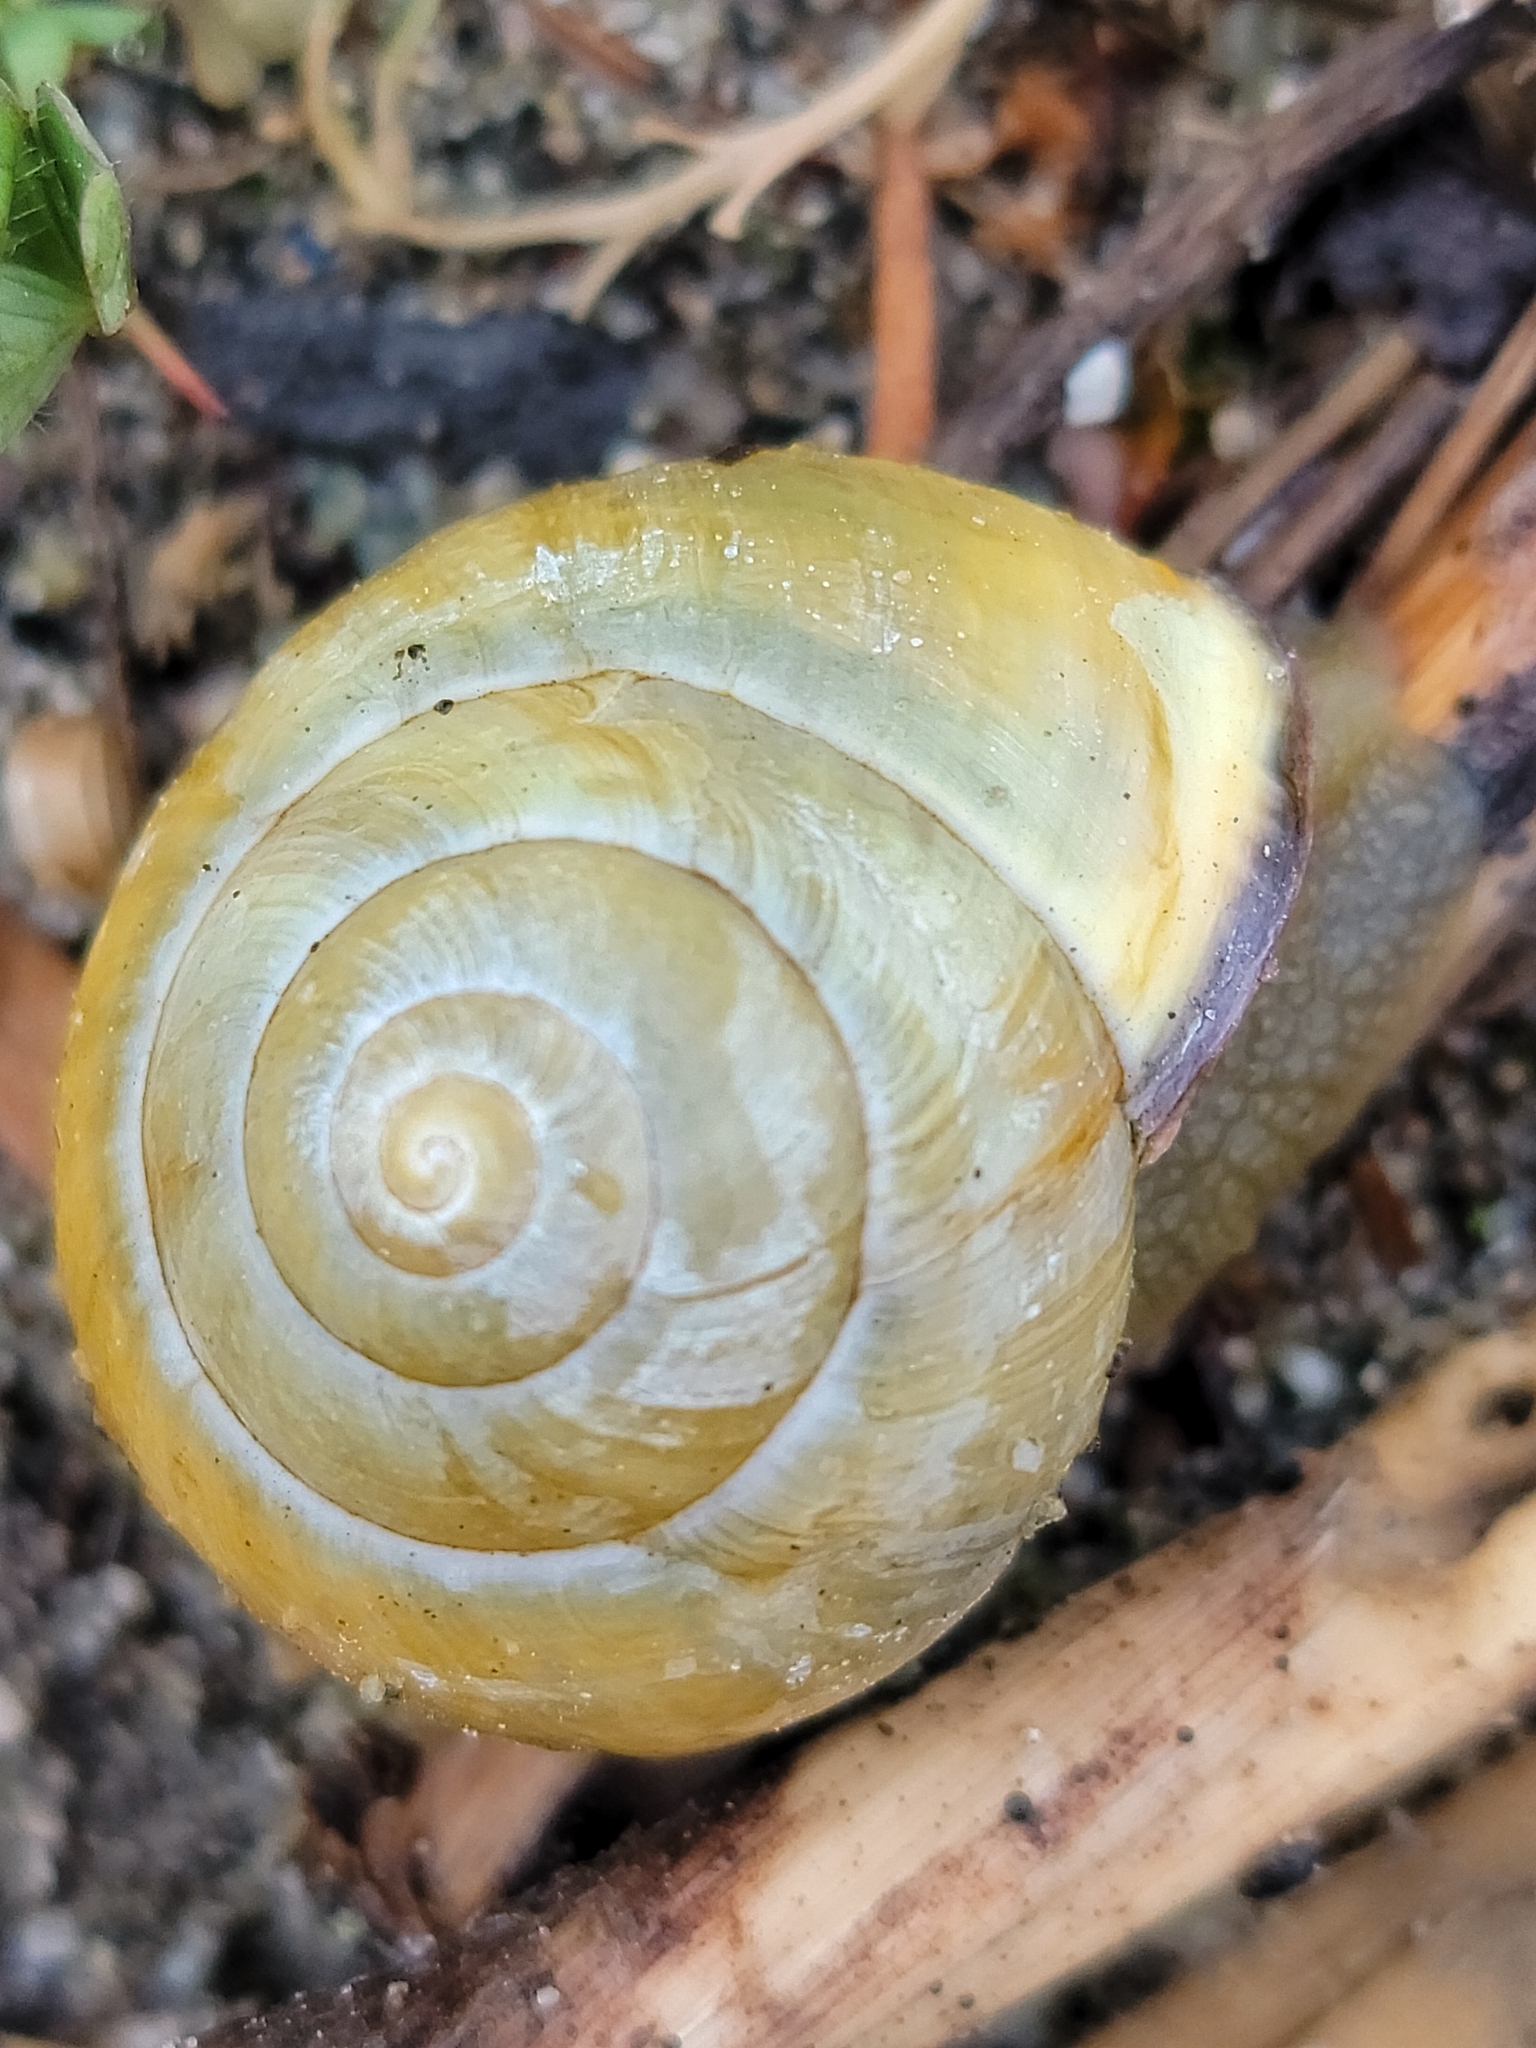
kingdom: Animalia
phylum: Mollusca
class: Gastropoda
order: Stylommatophora
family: Helicidae
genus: Cepaea
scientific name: Cepaea nemoralis
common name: Grovesnail
